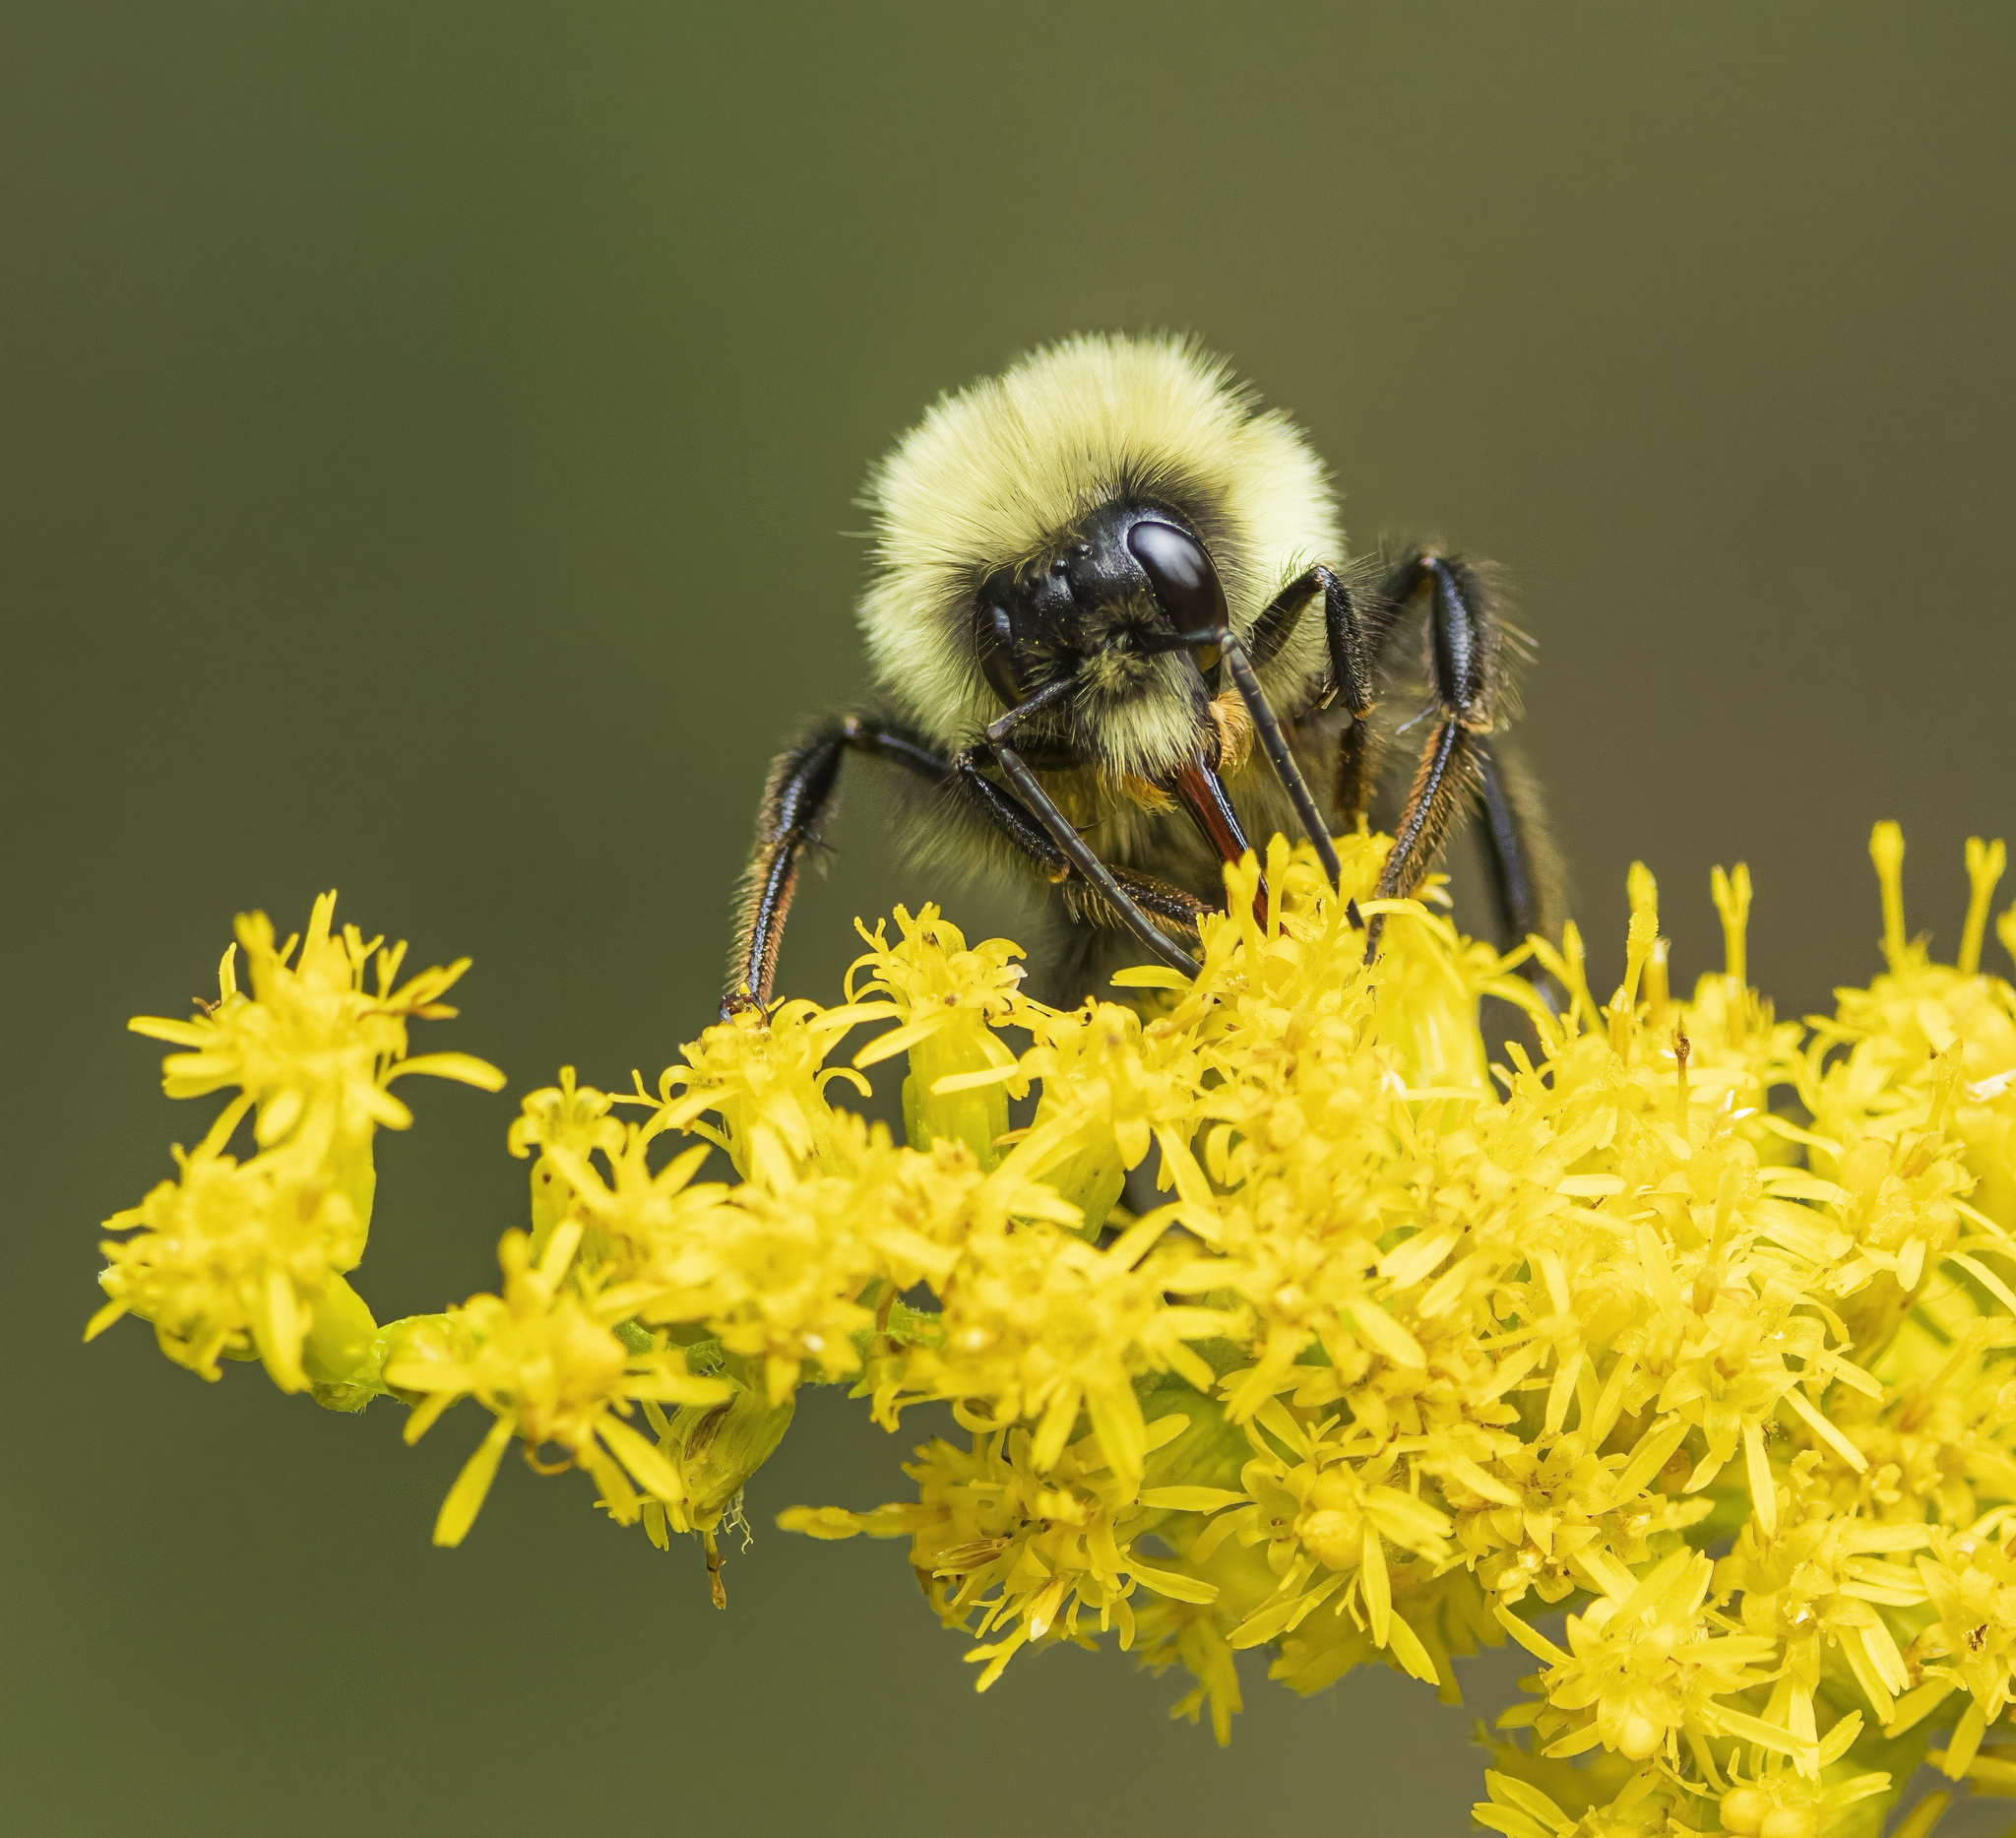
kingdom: Animalia
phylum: Arthropoda
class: Insecta
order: Hymenoptera
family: Apidae
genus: Bombus
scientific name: Bombus impatiens
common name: Common eastern bumble bee
